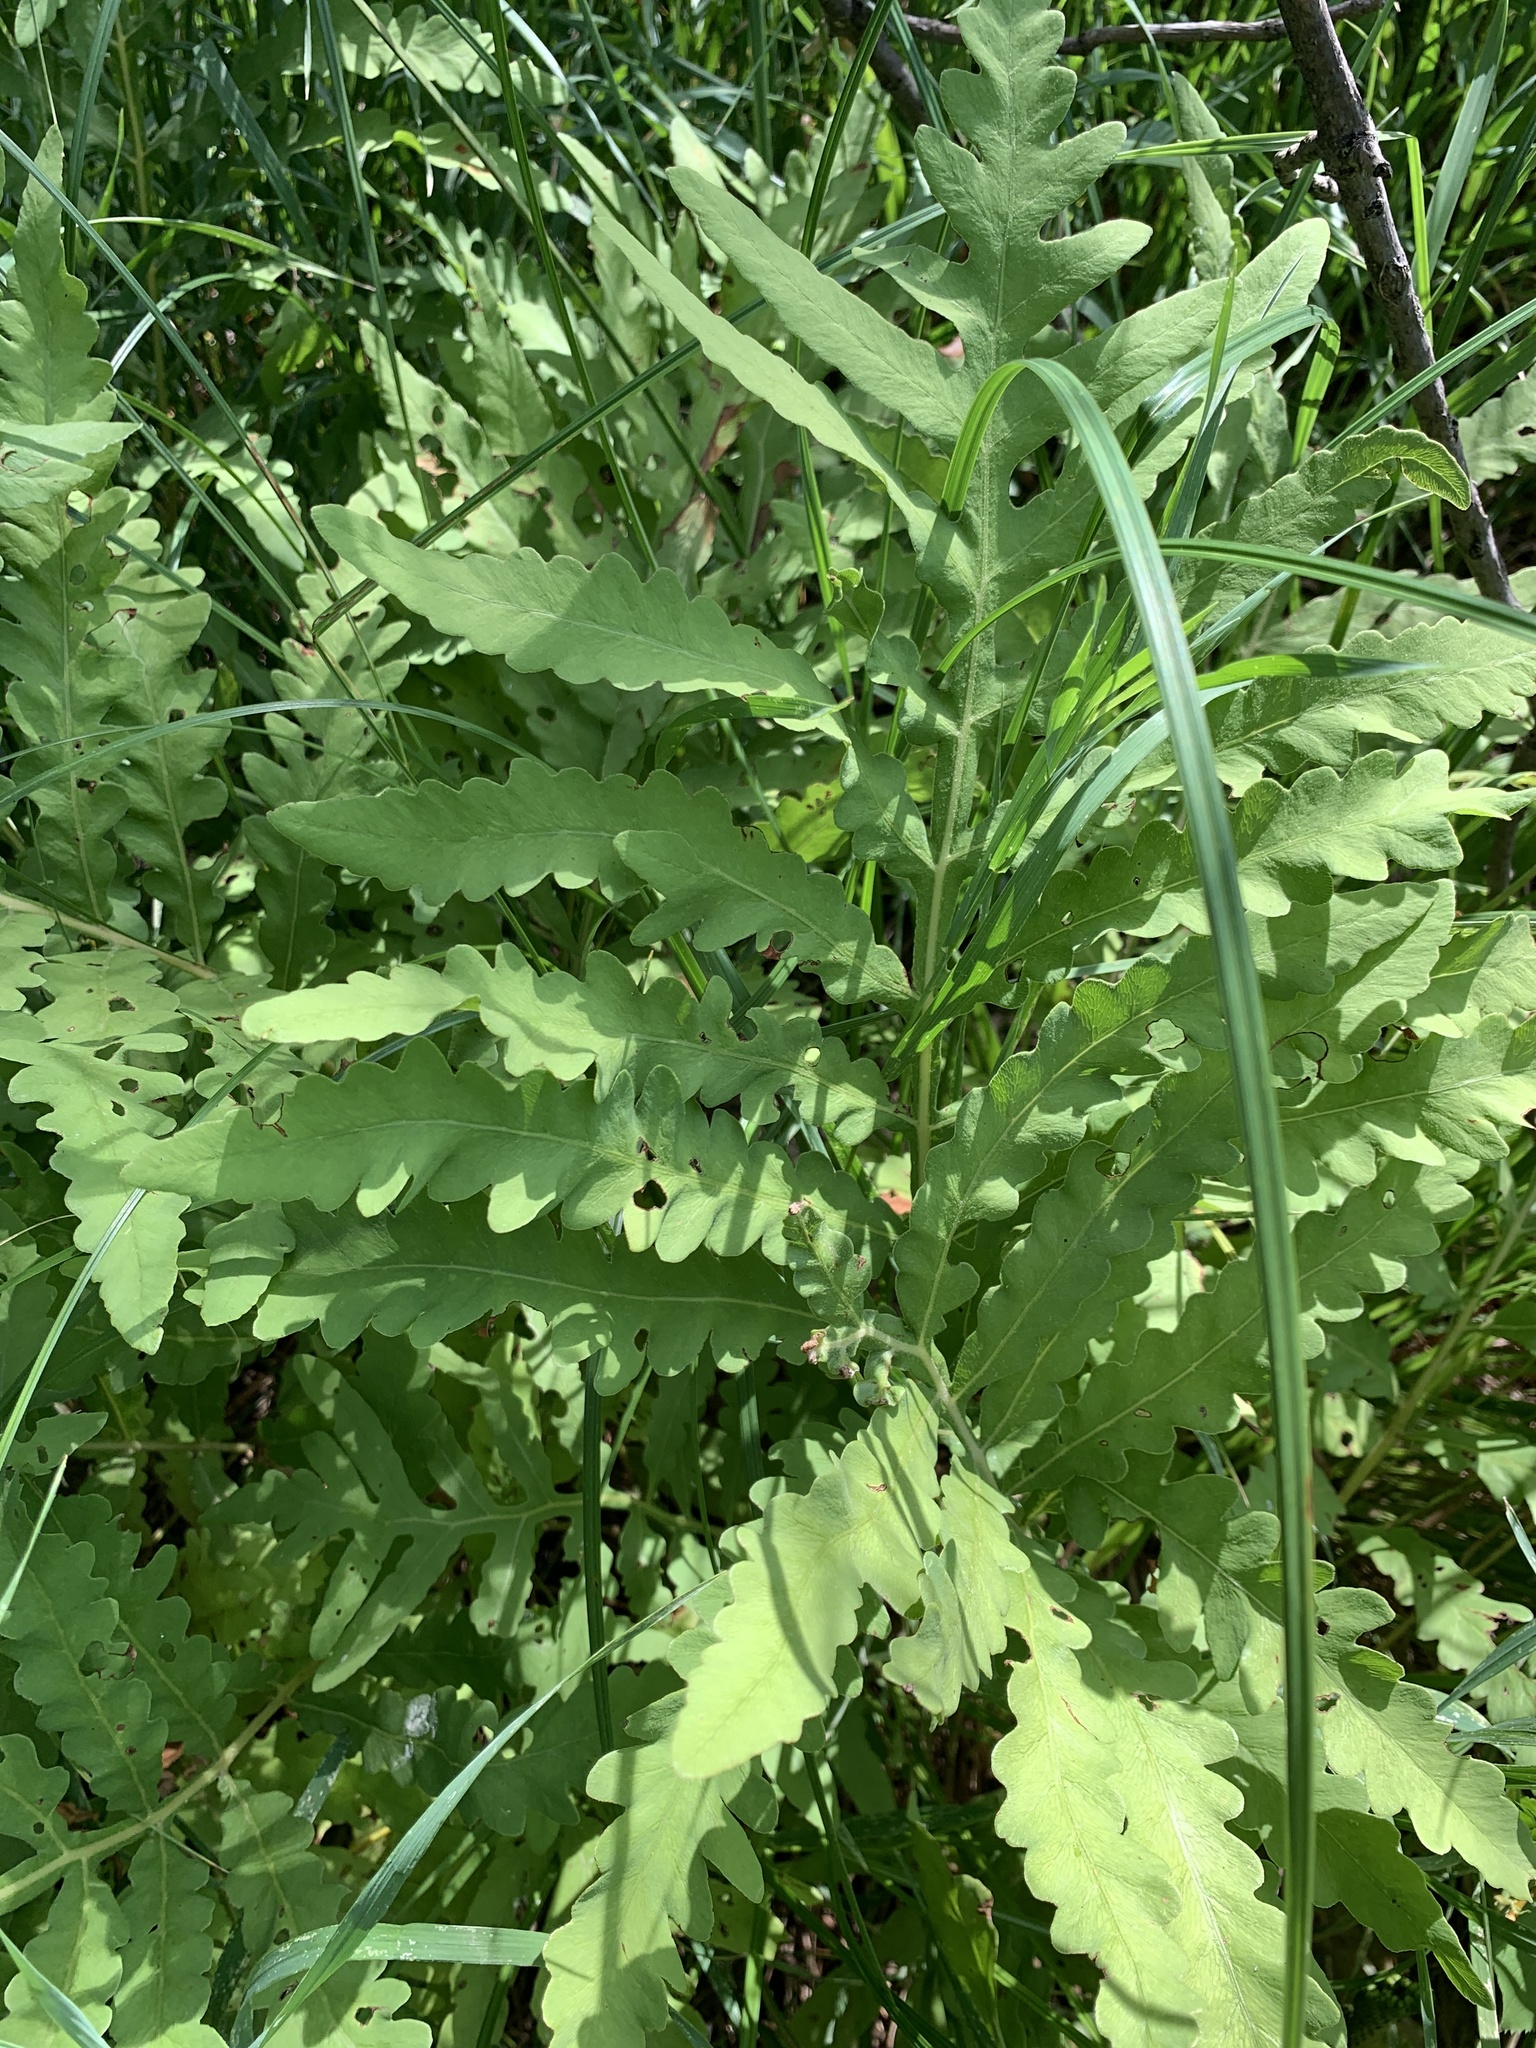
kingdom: Plantae
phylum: Tracheophyta
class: Polypodiopsida
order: Polypodiales
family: Onocleaceae
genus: Onoclea
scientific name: Onoclea sensibilis
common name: Sensitive fern
